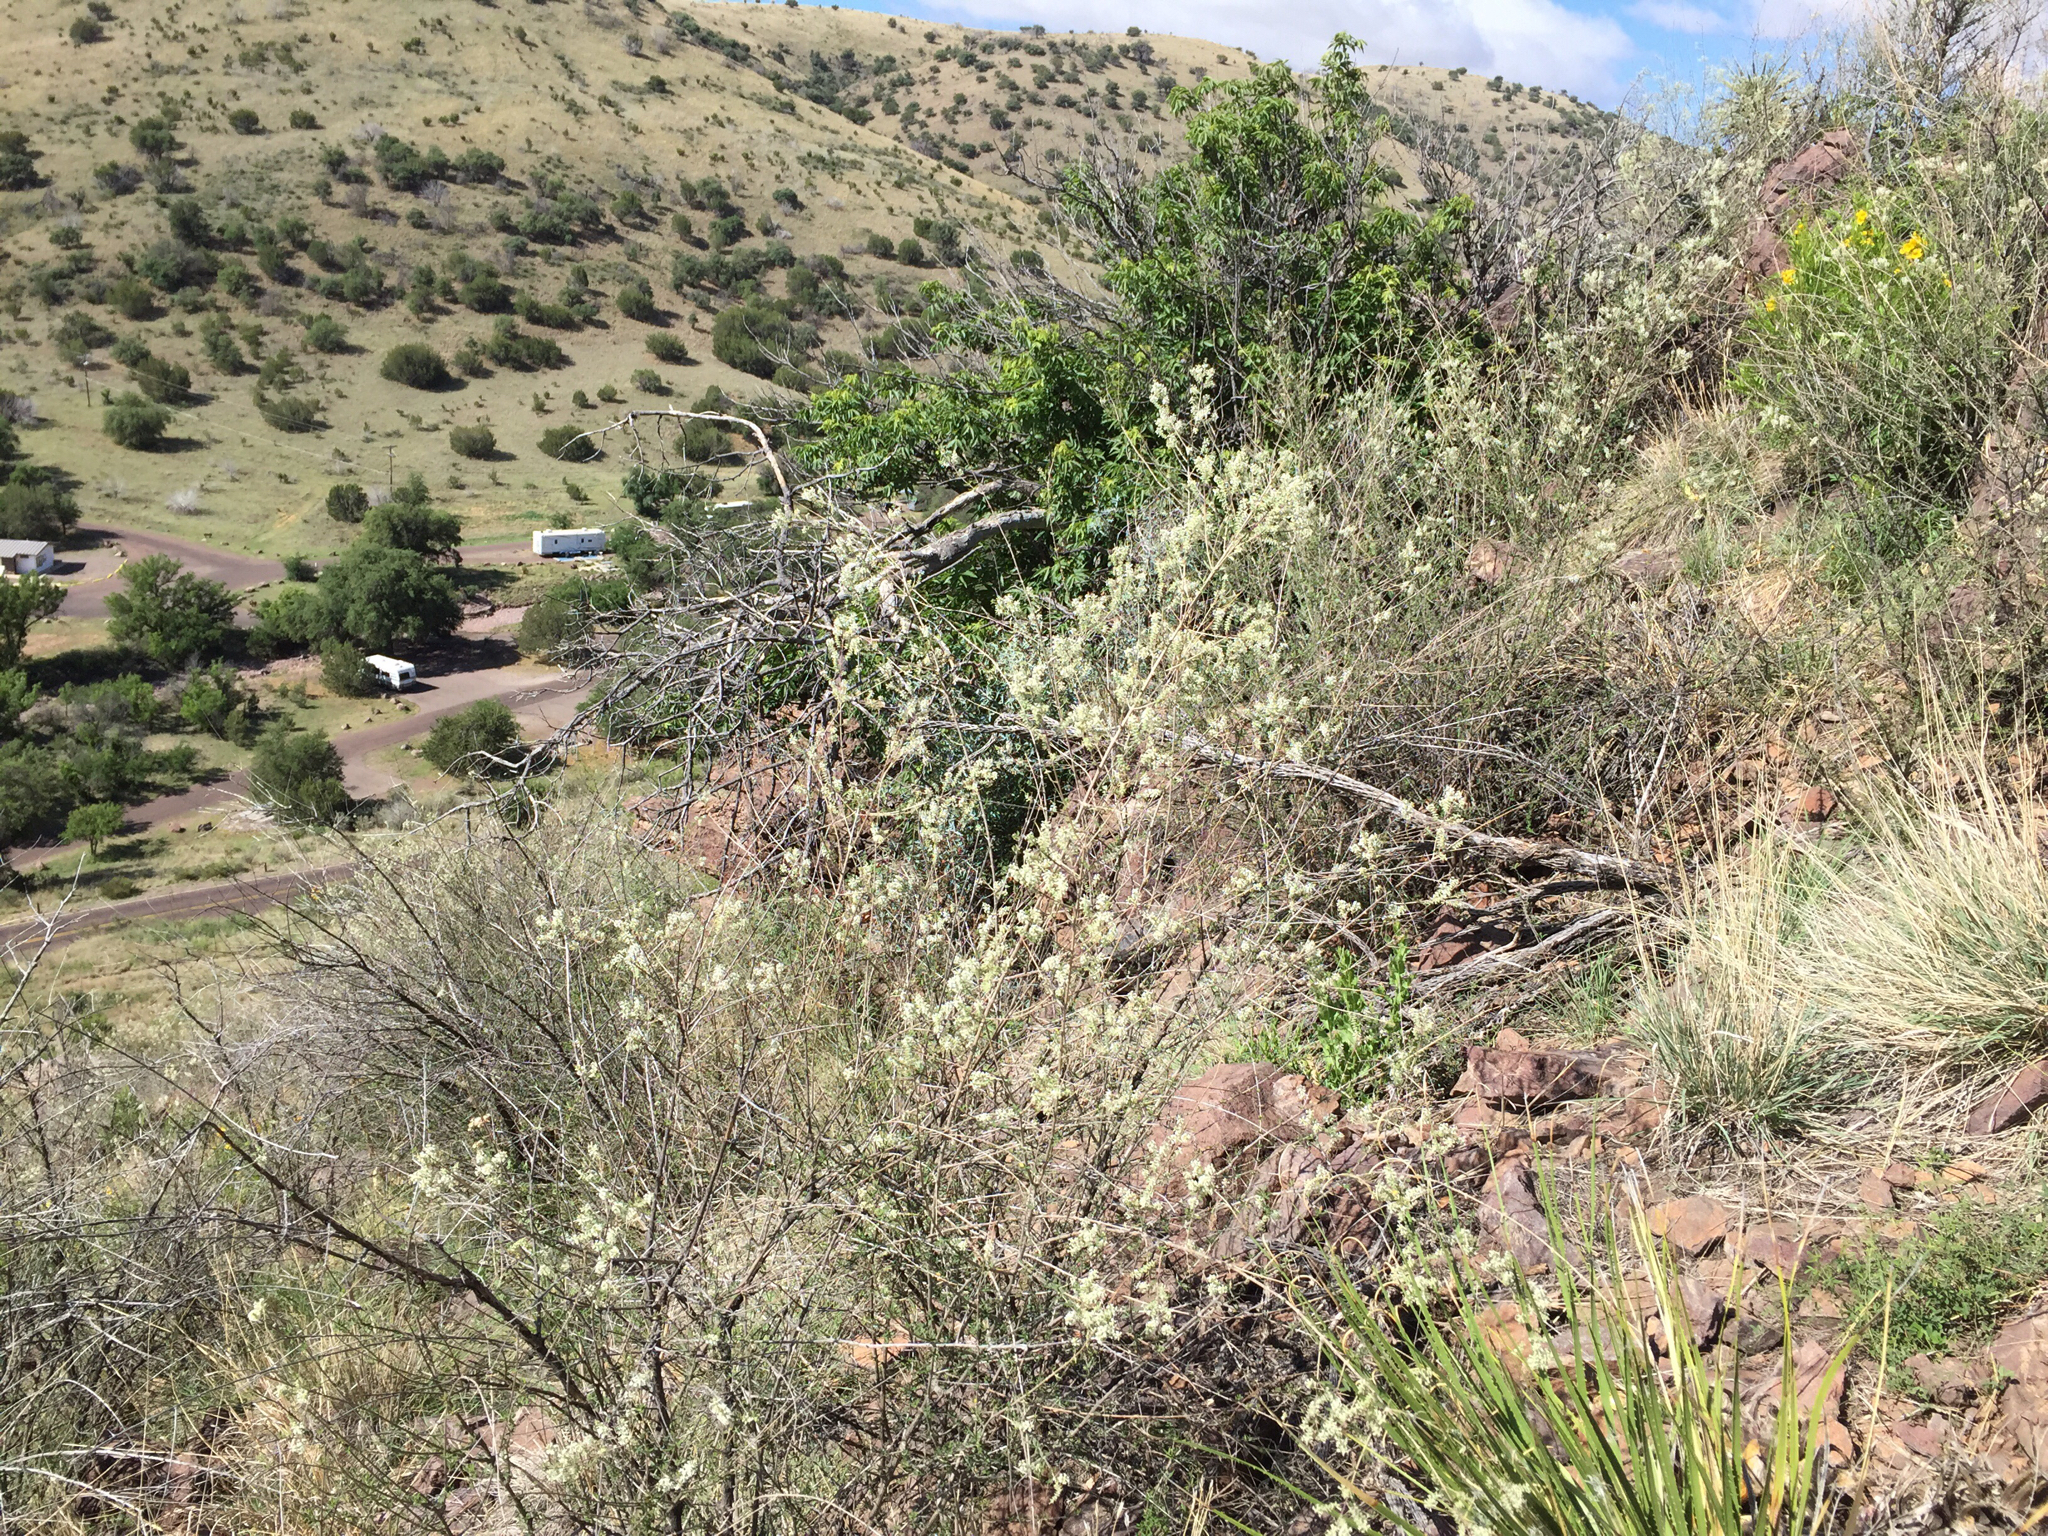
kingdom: Plantae
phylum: Tracheophyta
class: Magnoliopsida
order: Lamiales
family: Verbenaceae
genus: Aloysia
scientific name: Aloysia gratissima
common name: Common bee-brush
